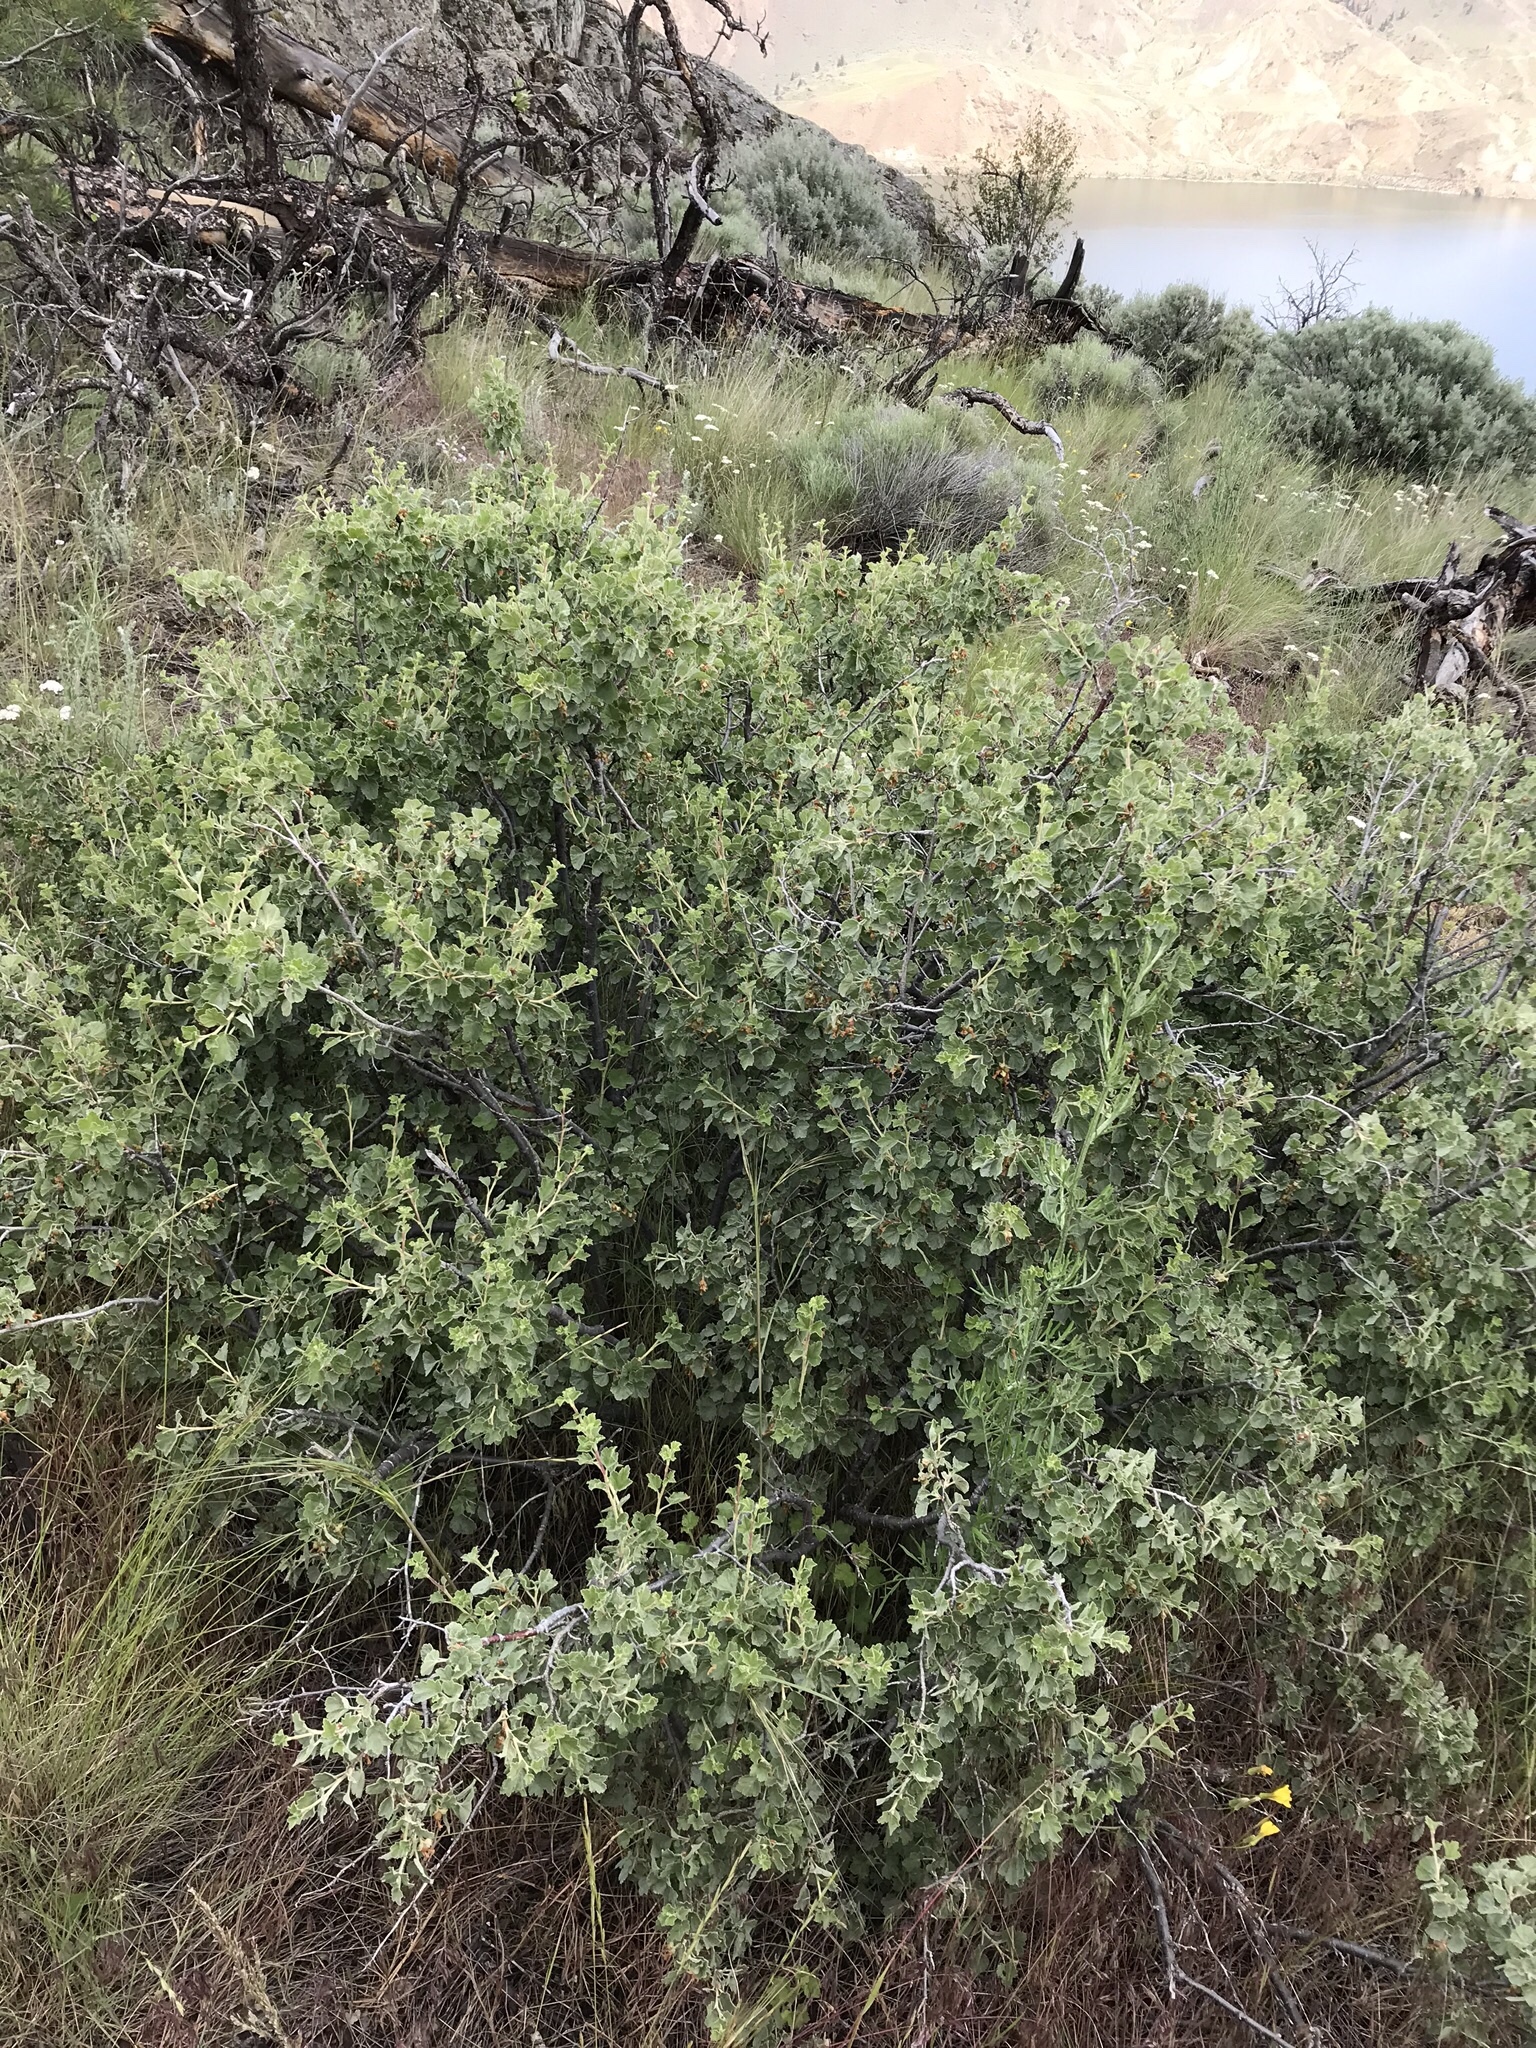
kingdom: Plantae
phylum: Tracheophyta
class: Magnoliopsida
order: Saxifragales
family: Grossulariaceae
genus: Ribes
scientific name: Ribes cereum
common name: Wax currant
